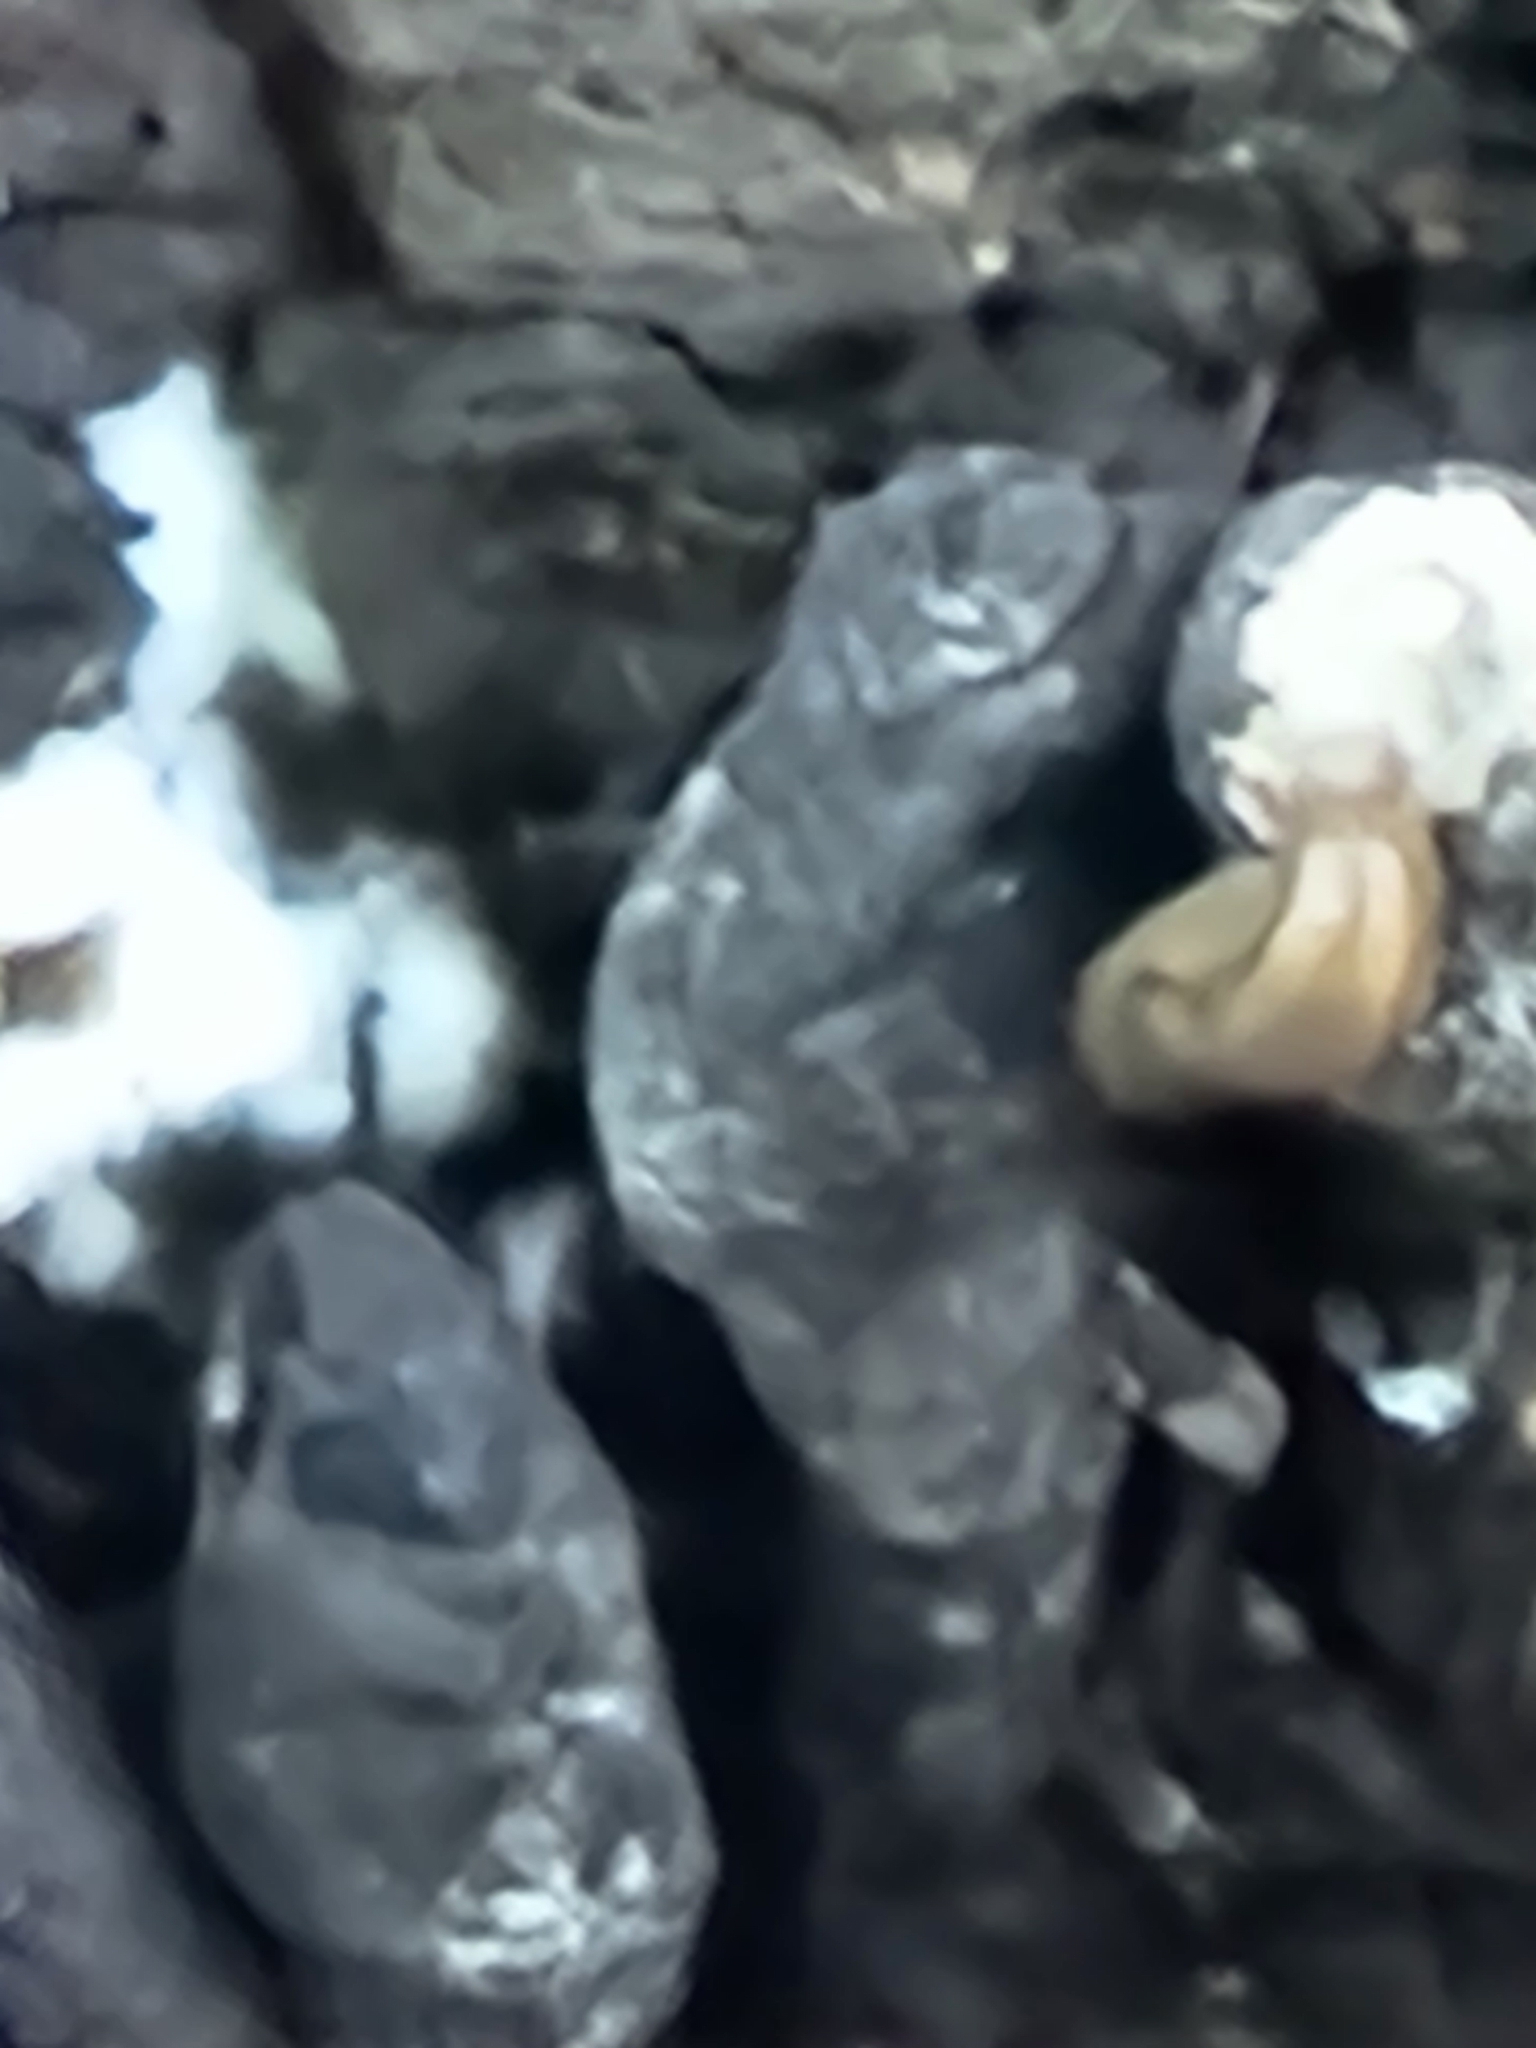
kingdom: Fungi
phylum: Ascomycota
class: Sordariomycetes
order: Xylariales
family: Xylariaceae
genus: Xylaria
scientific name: Xylaria polymorpha
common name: Dead man's fingers
